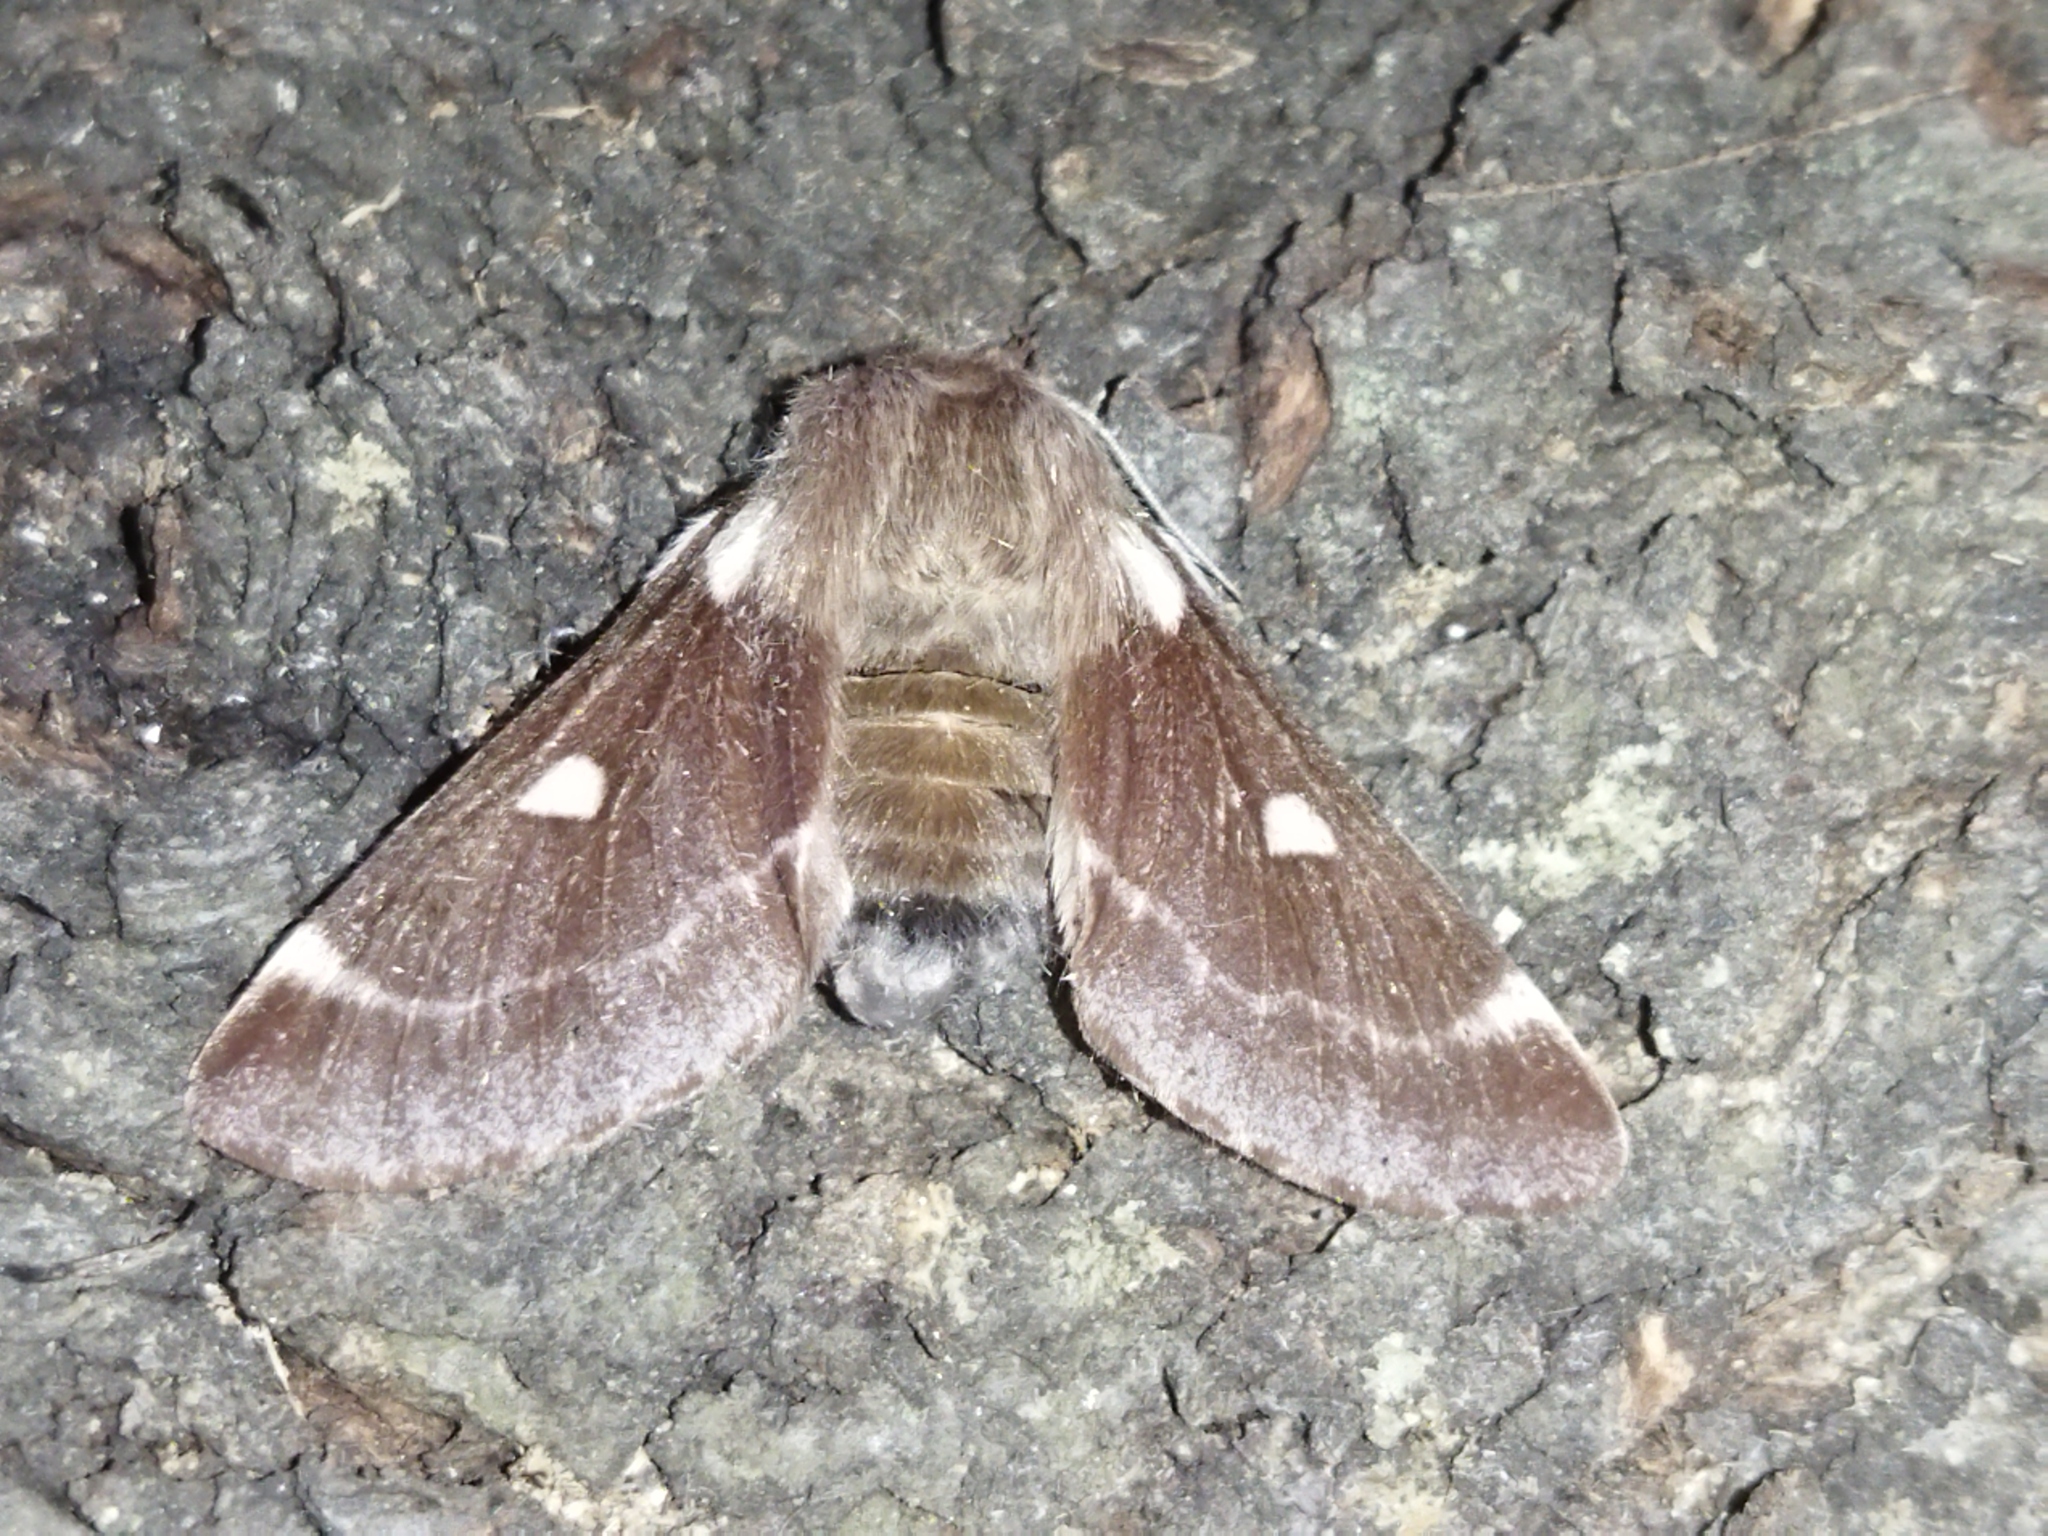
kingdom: Animalia
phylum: Arthropoda
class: Insecta
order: Lepidoptera
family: Lasiocampidae
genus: Eriogaster
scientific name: Eriogaster lanestris
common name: Small eggar
